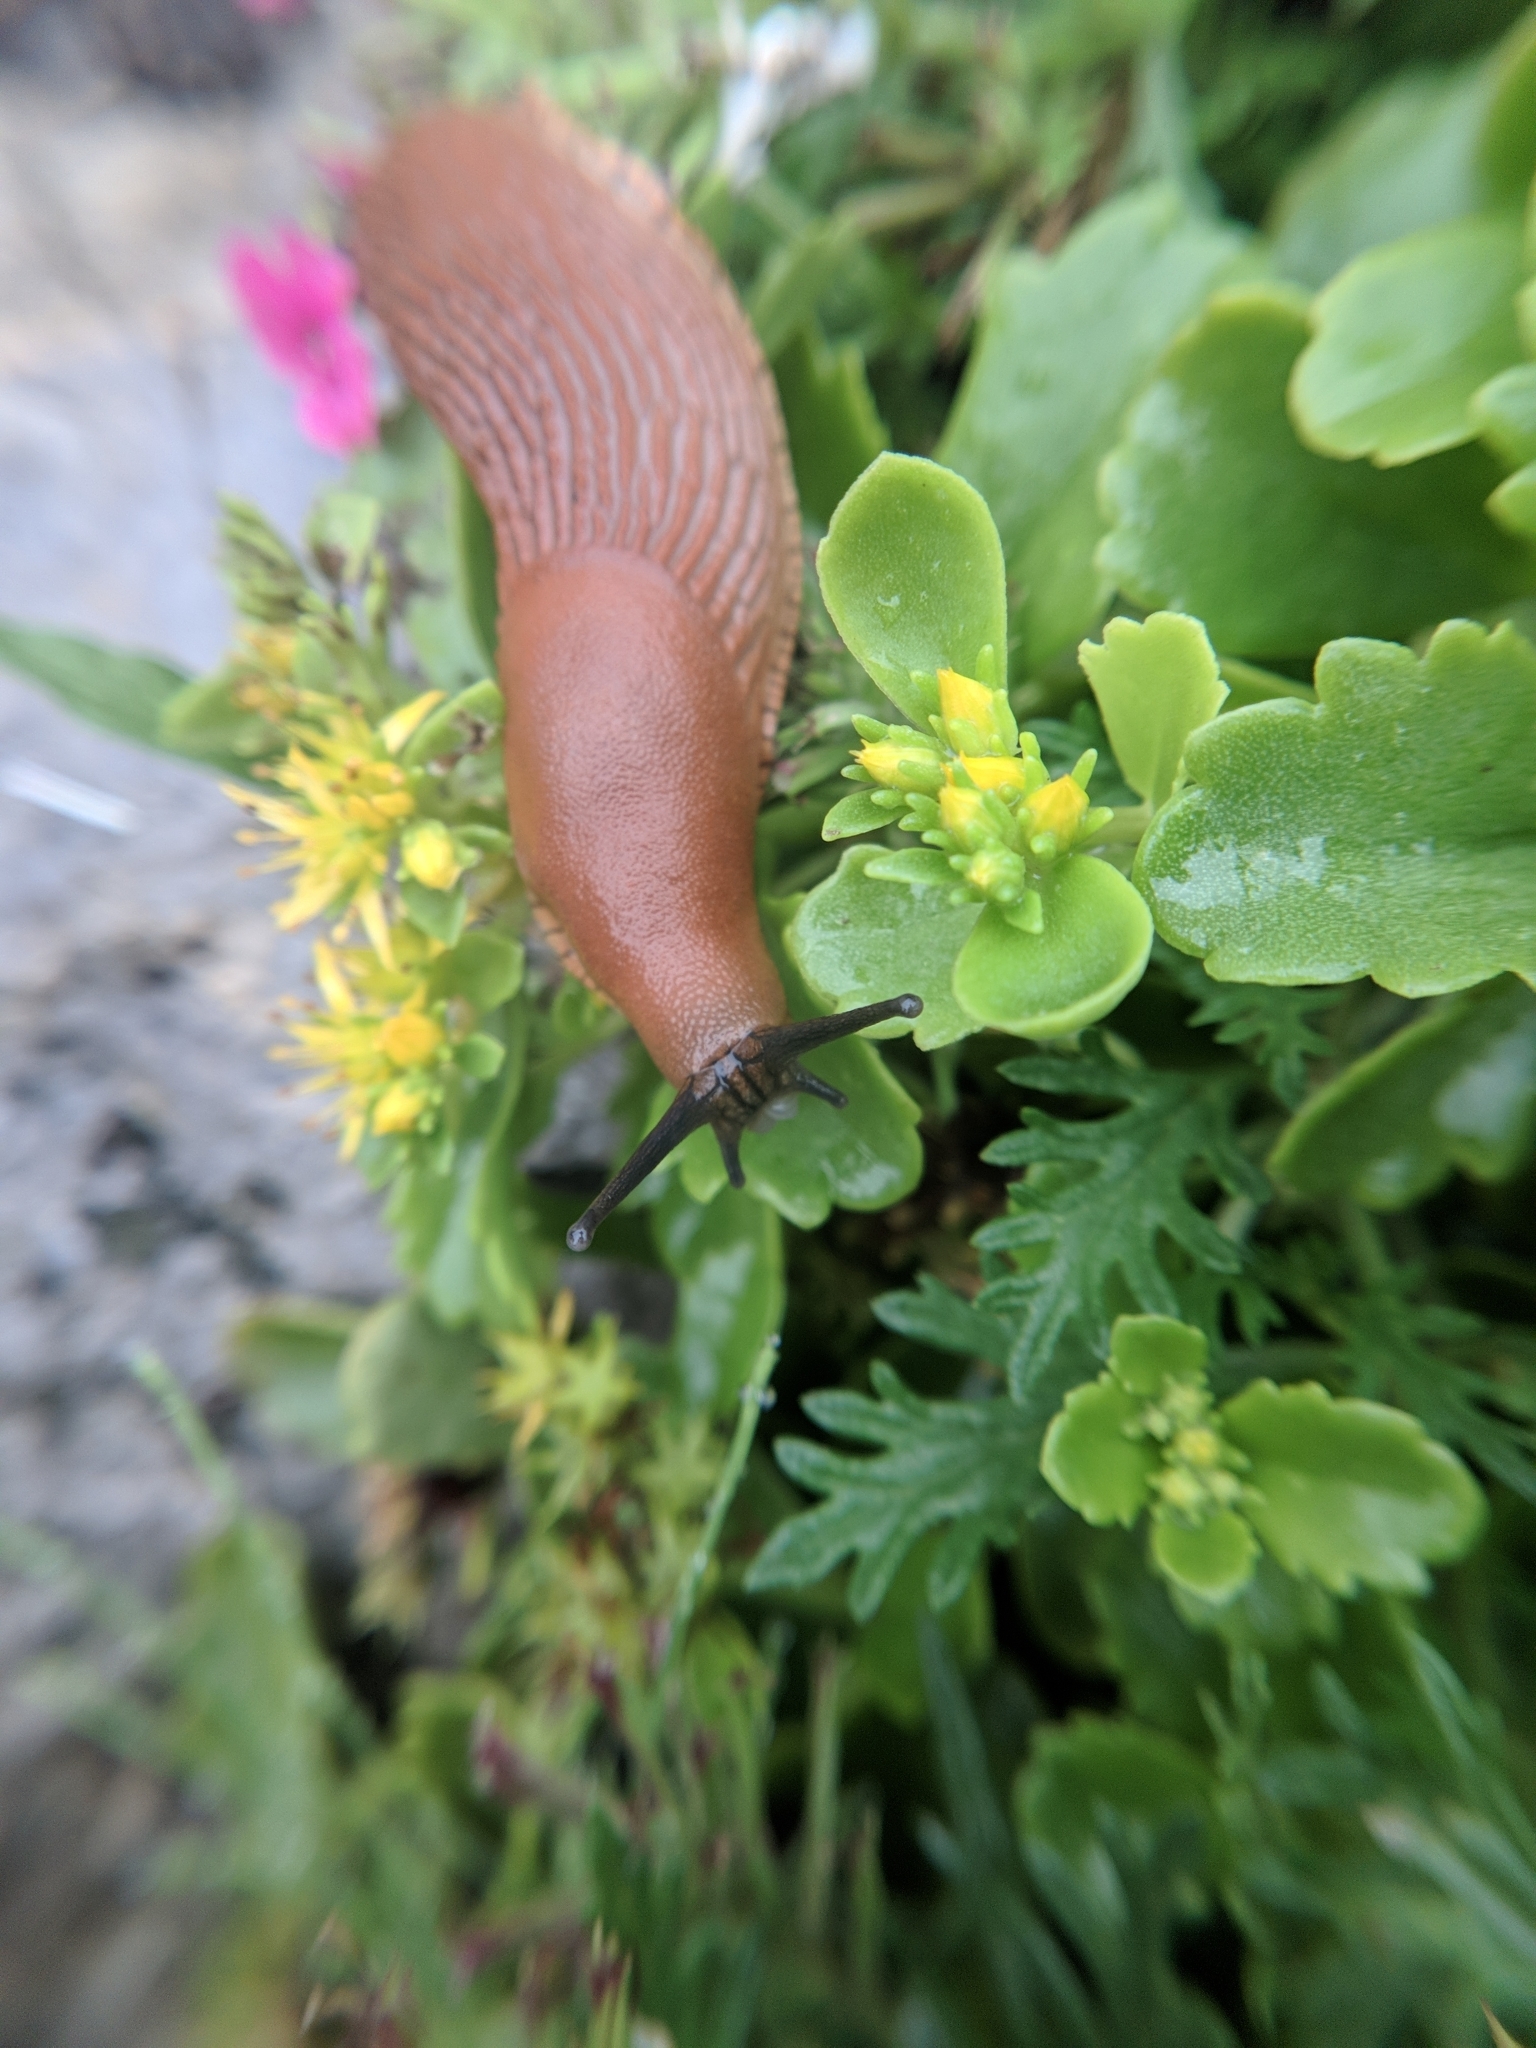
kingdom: Animalia
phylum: Mollusca
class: Gastropoda
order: Stylommatophora
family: Arionidae
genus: Arion
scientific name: Arion vulgaris
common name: Lusitanian slug
